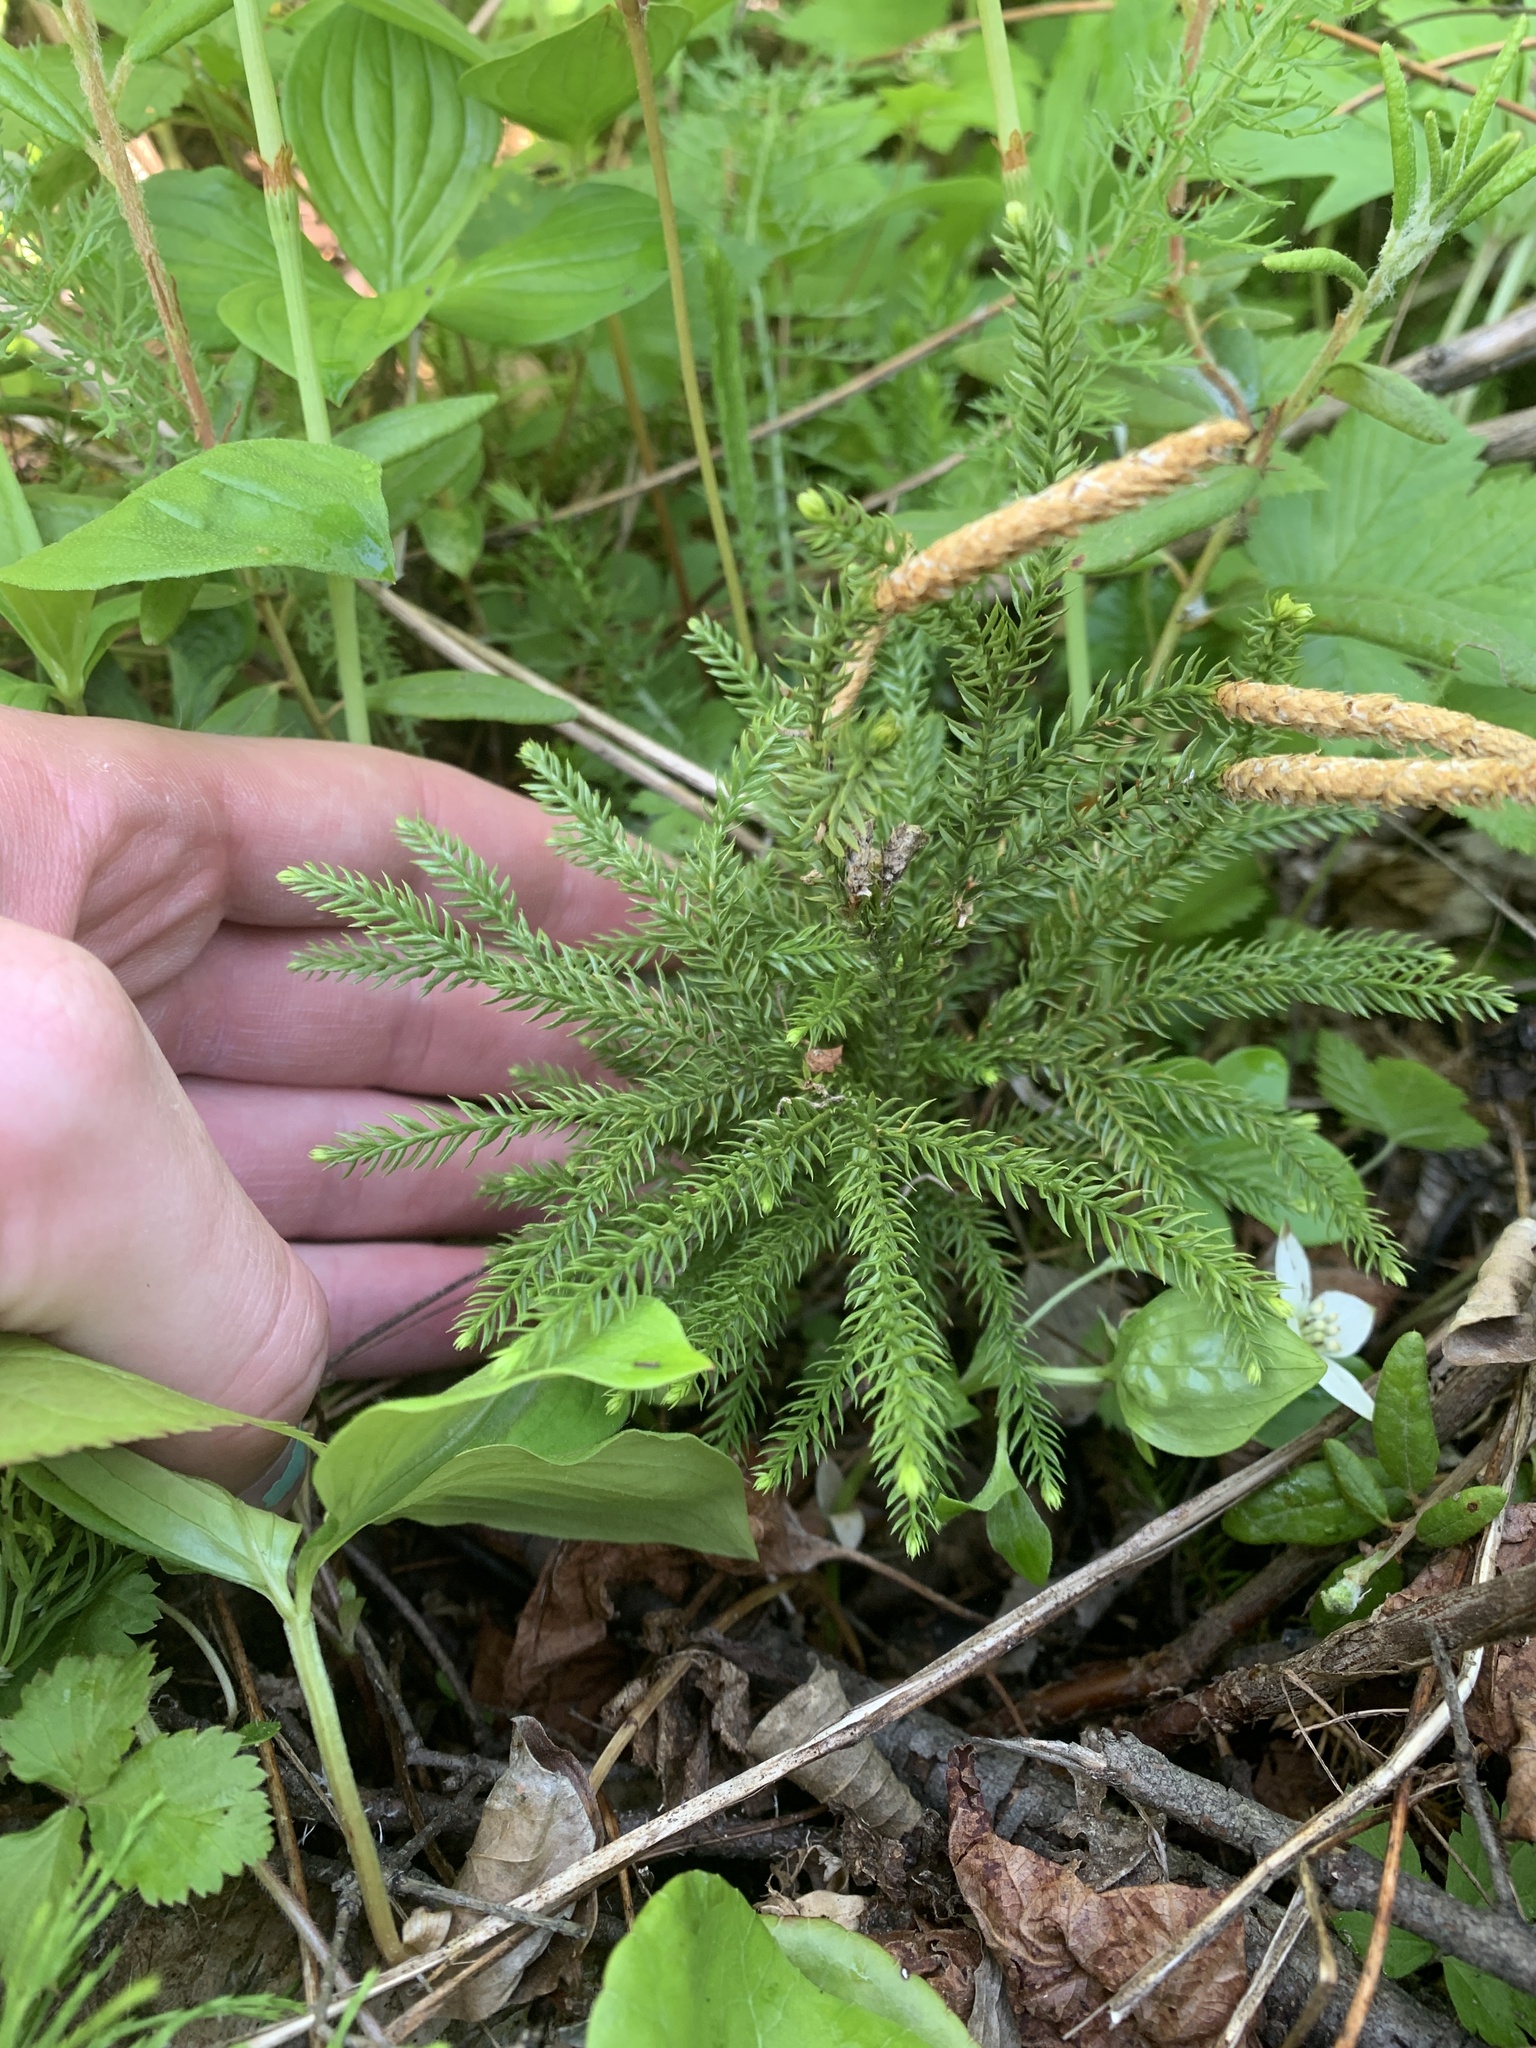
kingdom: Plantae
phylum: Tracheophyta
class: Lycopodiopsida
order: Lycopodiales
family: Lycopodiaceae
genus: Dendrolycopodium
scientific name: Dendrolycopodium dendroideum
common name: Northern tree-clubmoss
